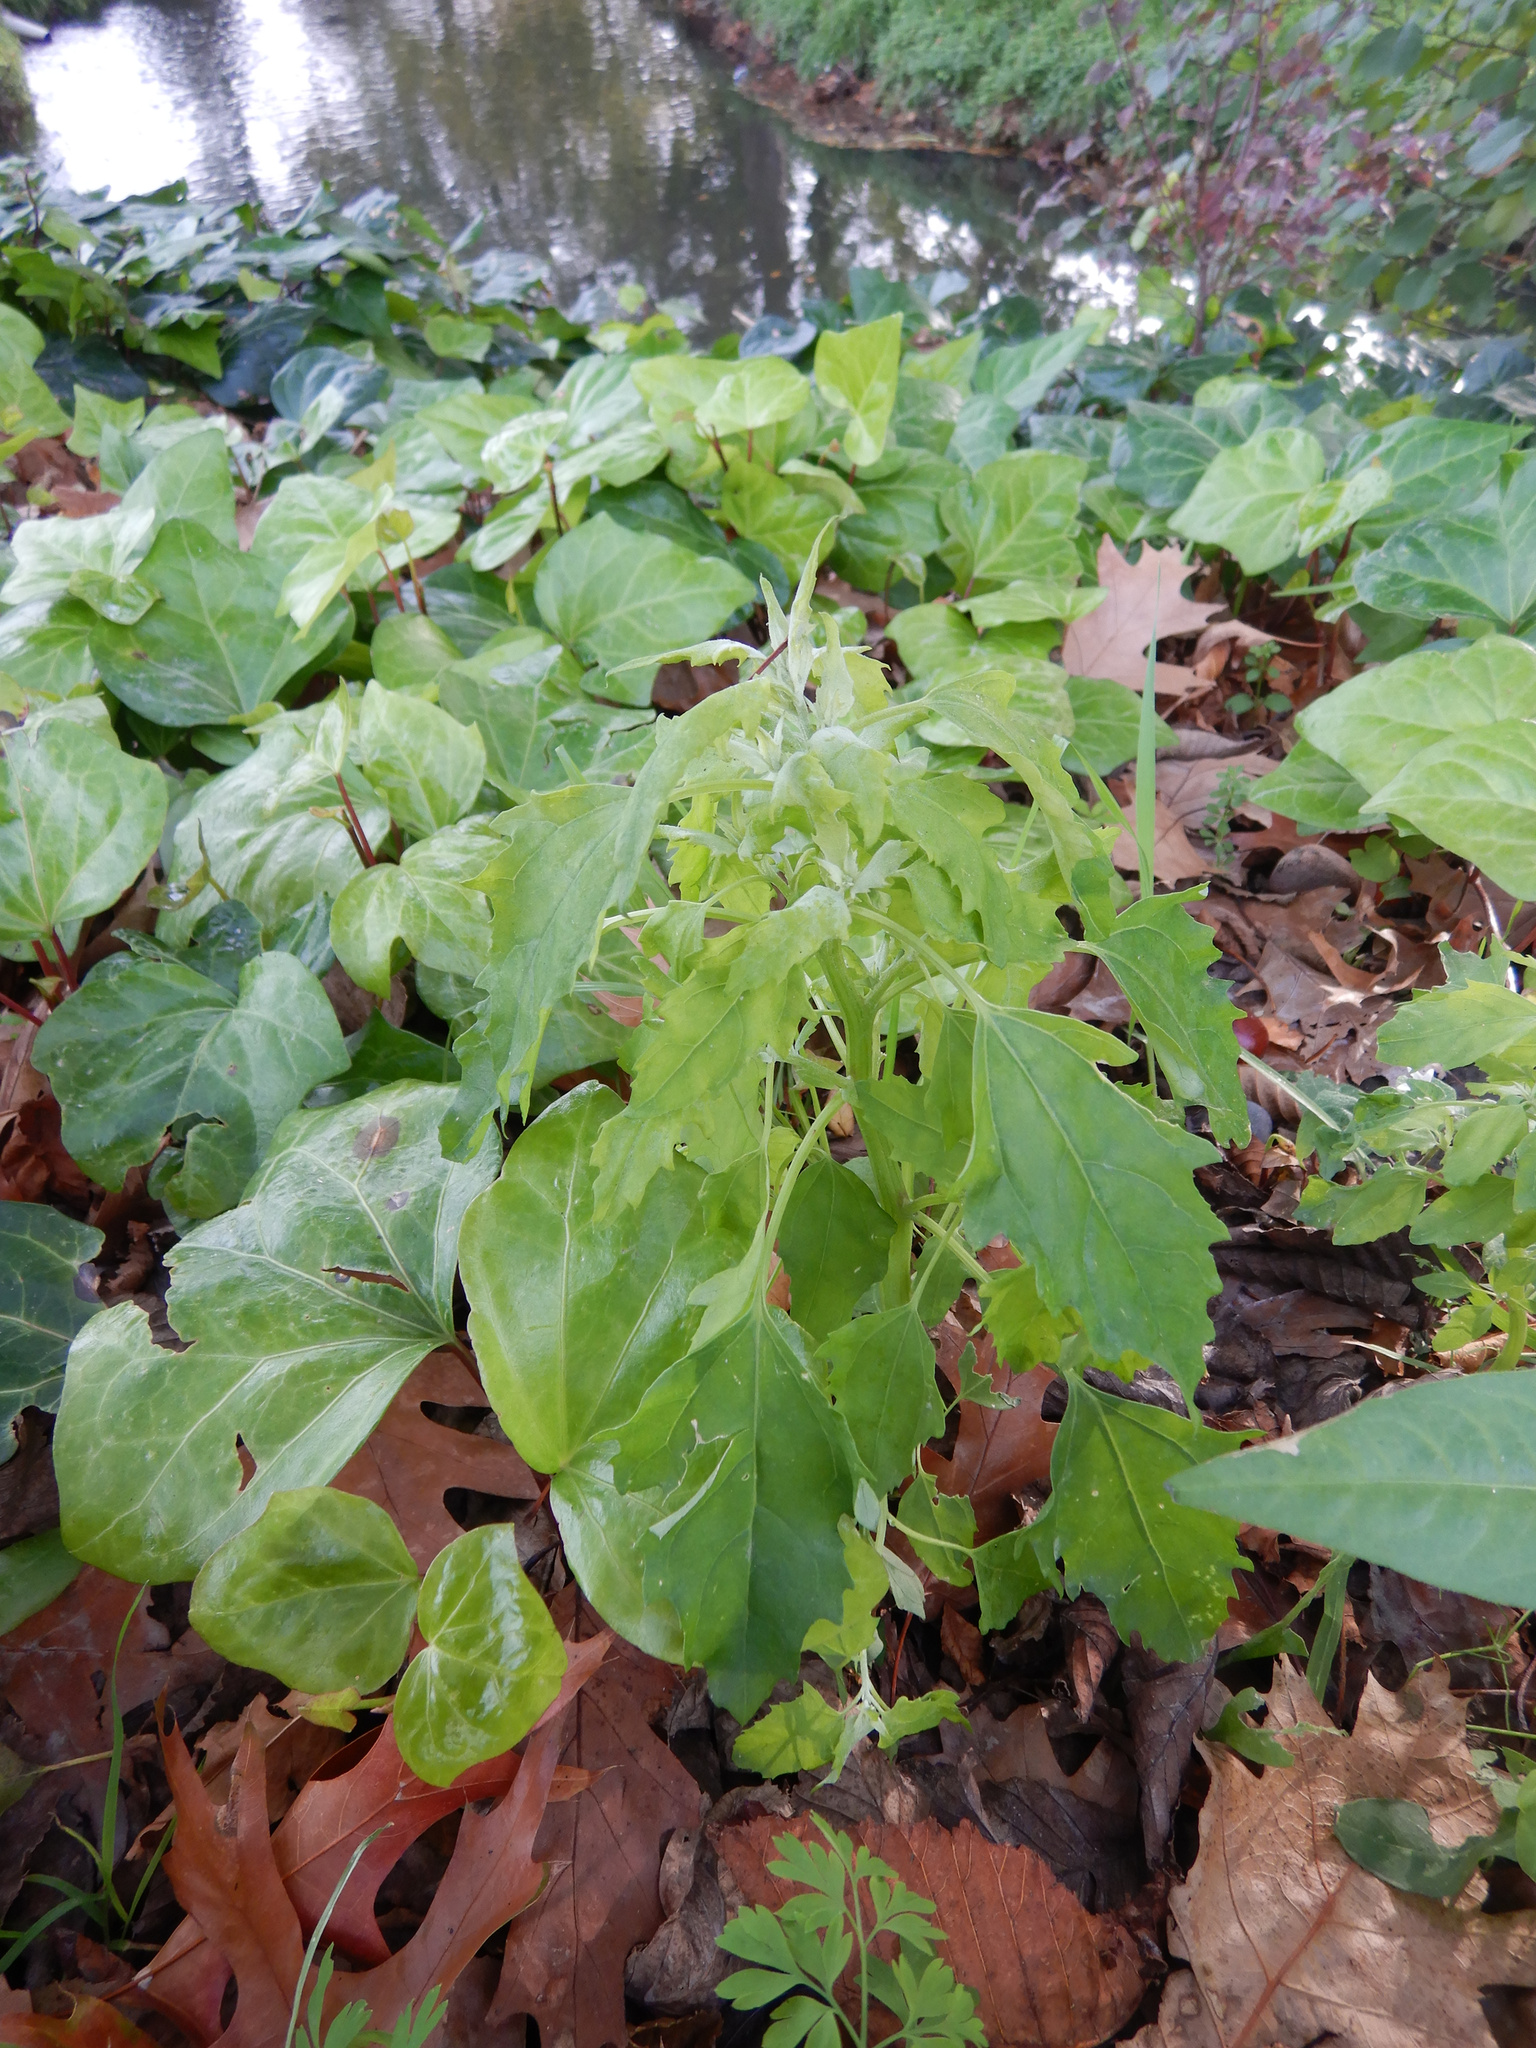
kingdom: Plantae
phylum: Tracheophyta
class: Magnoliopsida
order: Caryophyllales
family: Amaranthaceae
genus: Chenopodium
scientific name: Chenopodium album
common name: Fat-hen
